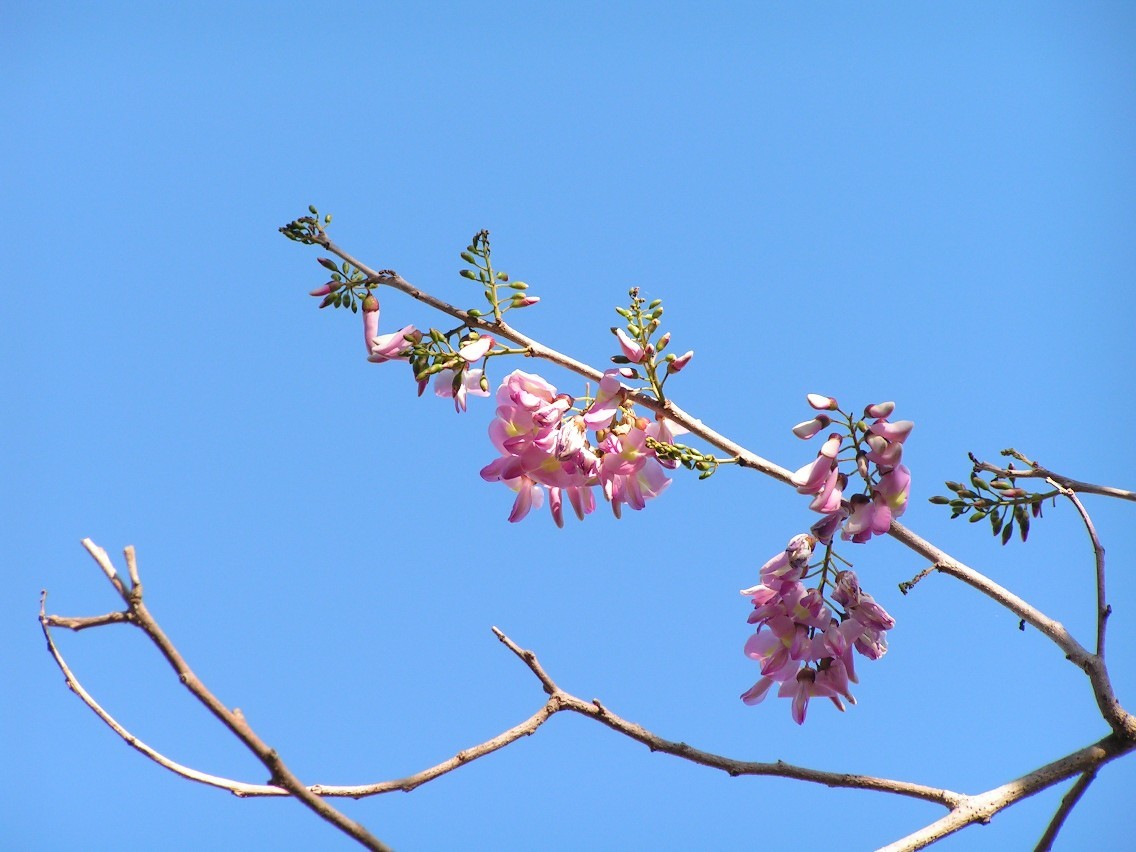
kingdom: Plantae
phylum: Tracheophyta
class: Magnoliopsida
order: Fabales
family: Fabaceae
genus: Gliricidia
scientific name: Gliricidia sepium
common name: Quickstick
